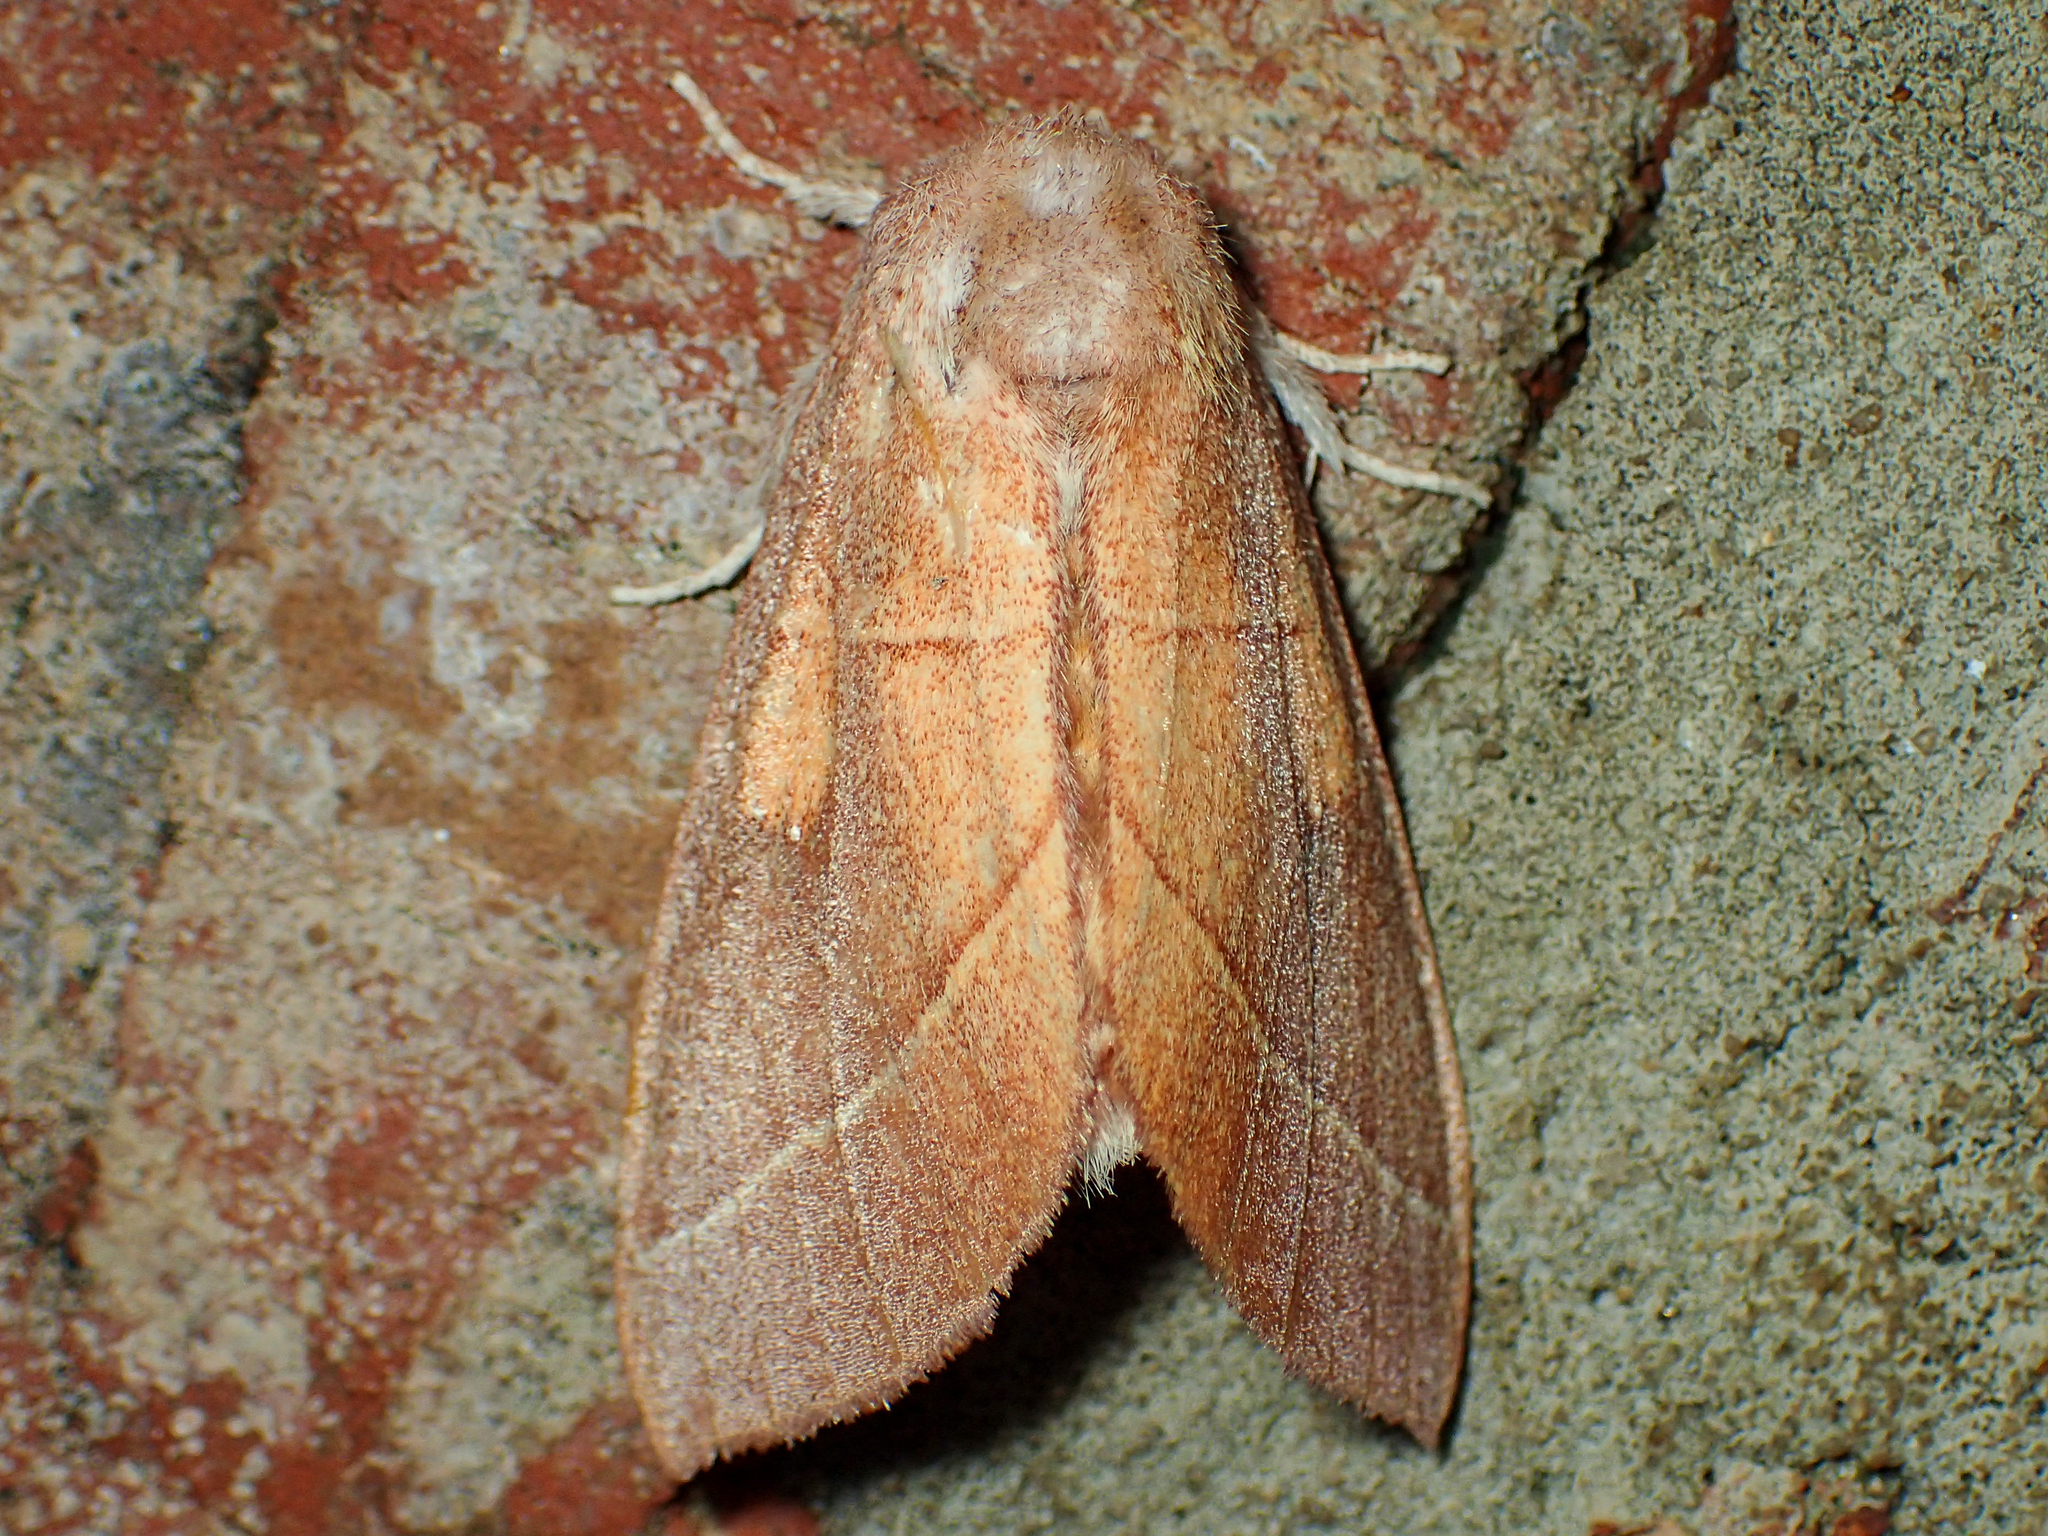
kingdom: Animalia
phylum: Arthropoda
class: Insecta
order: Lepidoptera
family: Notodontidae
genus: Nadata
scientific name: Nadata gibbosa
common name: White-dotted prominent
